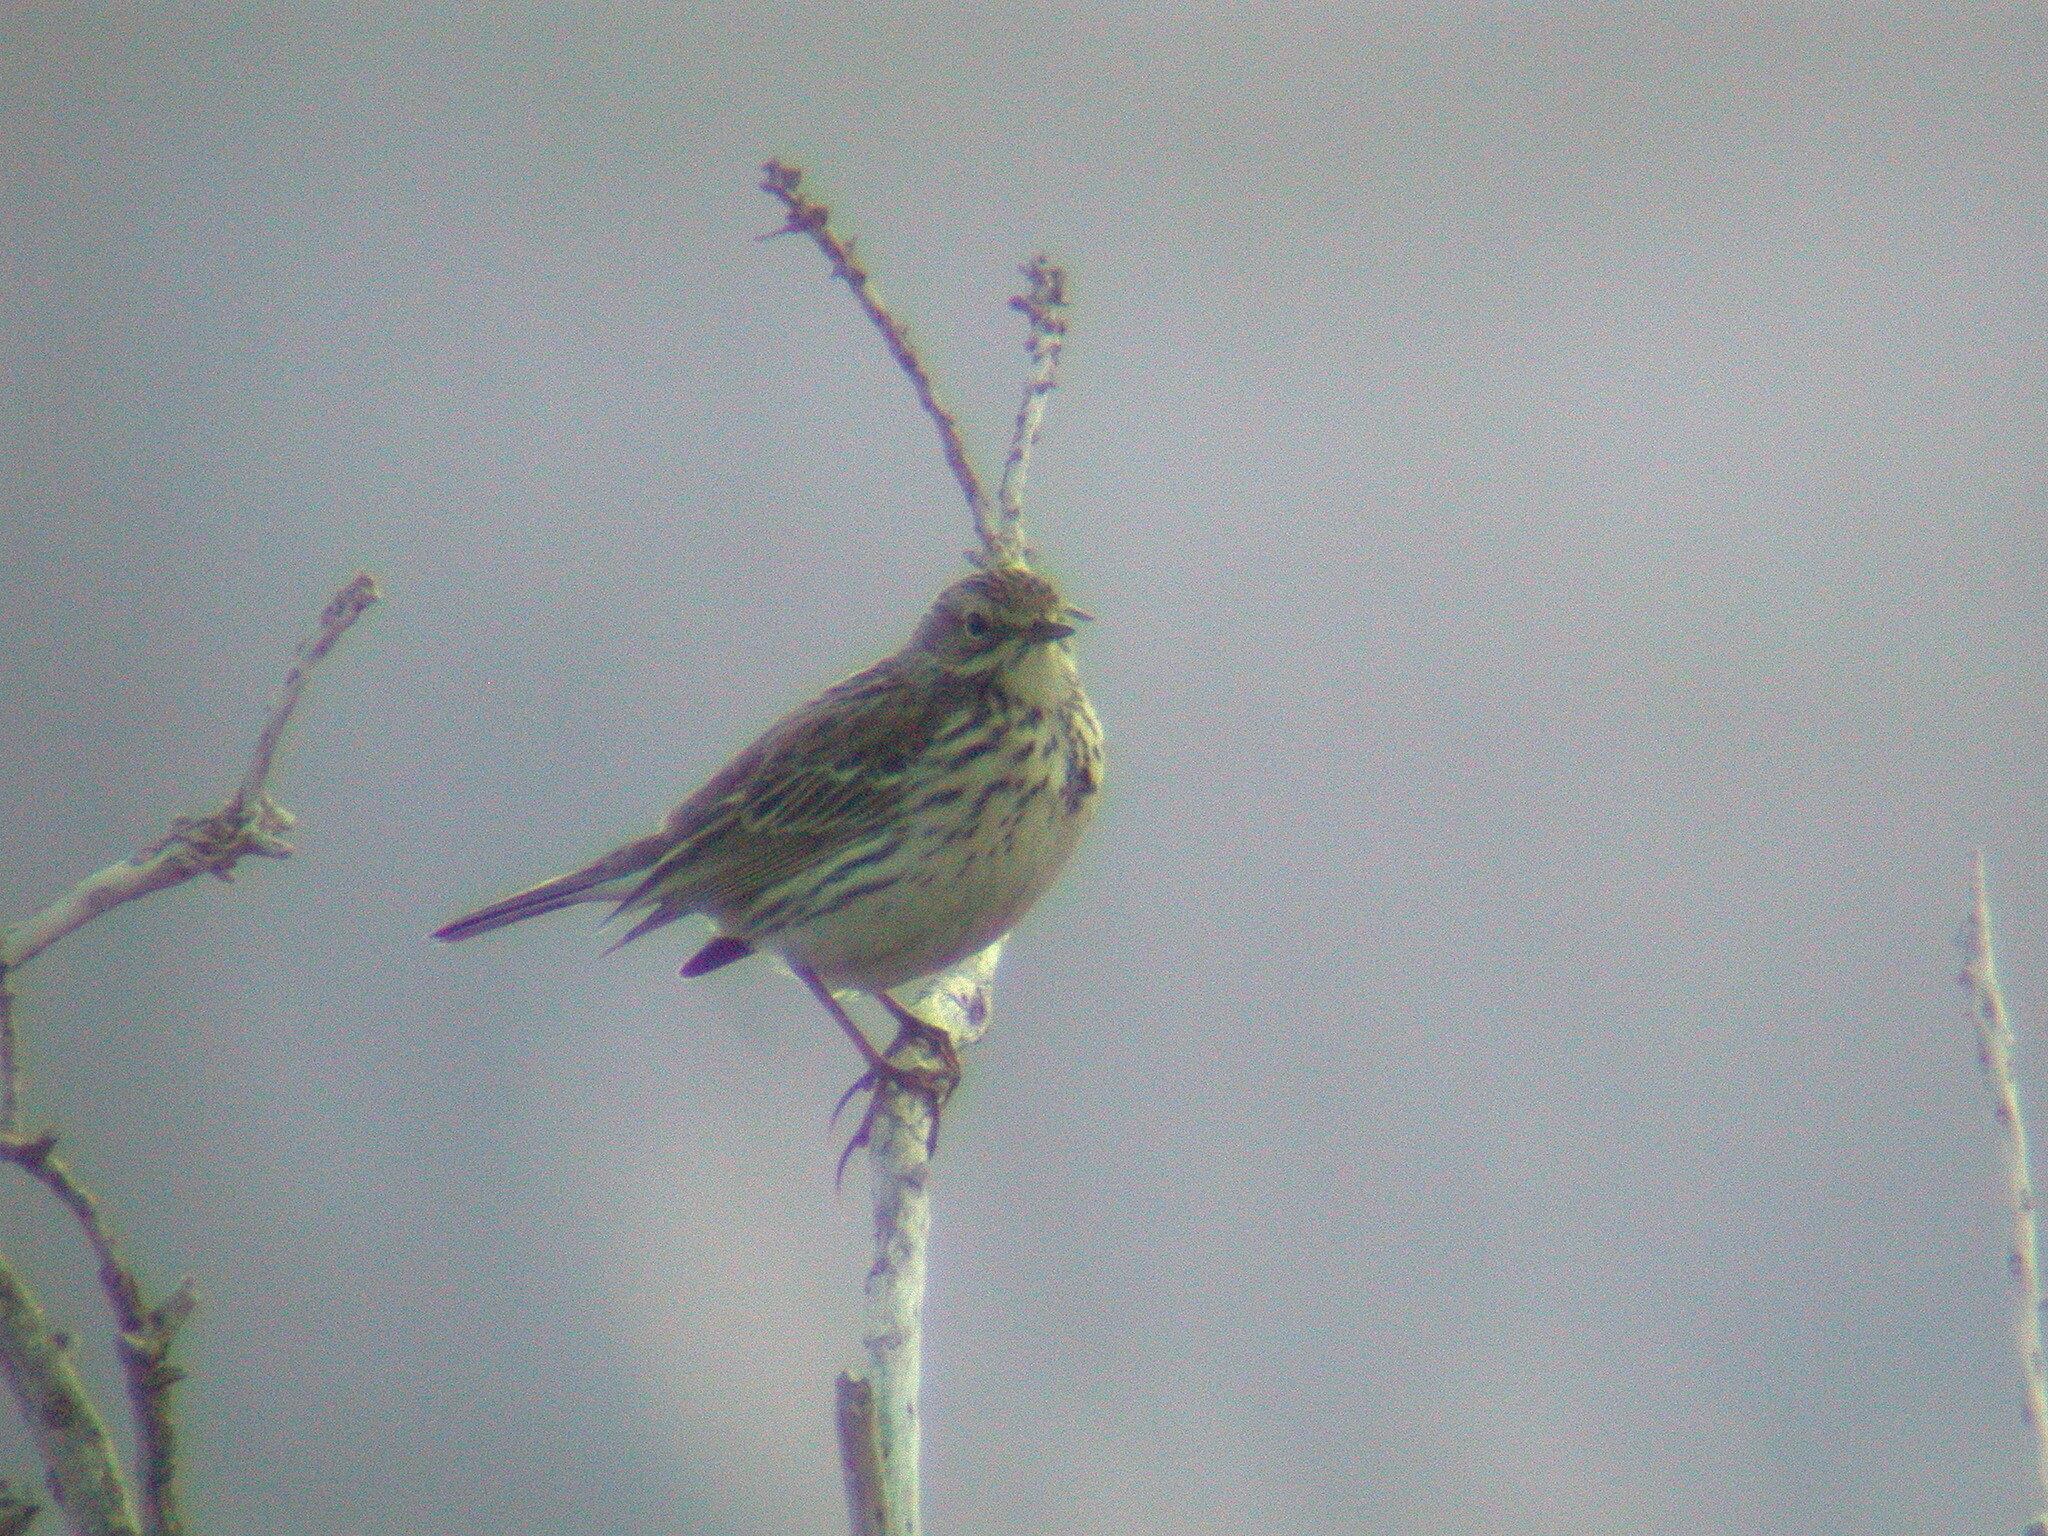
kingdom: Animalia
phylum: Chordata
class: Aves
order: Passeriformes
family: Motacillidae
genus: Anthus
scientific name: Anthus pratensis
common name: Meadow pipit
